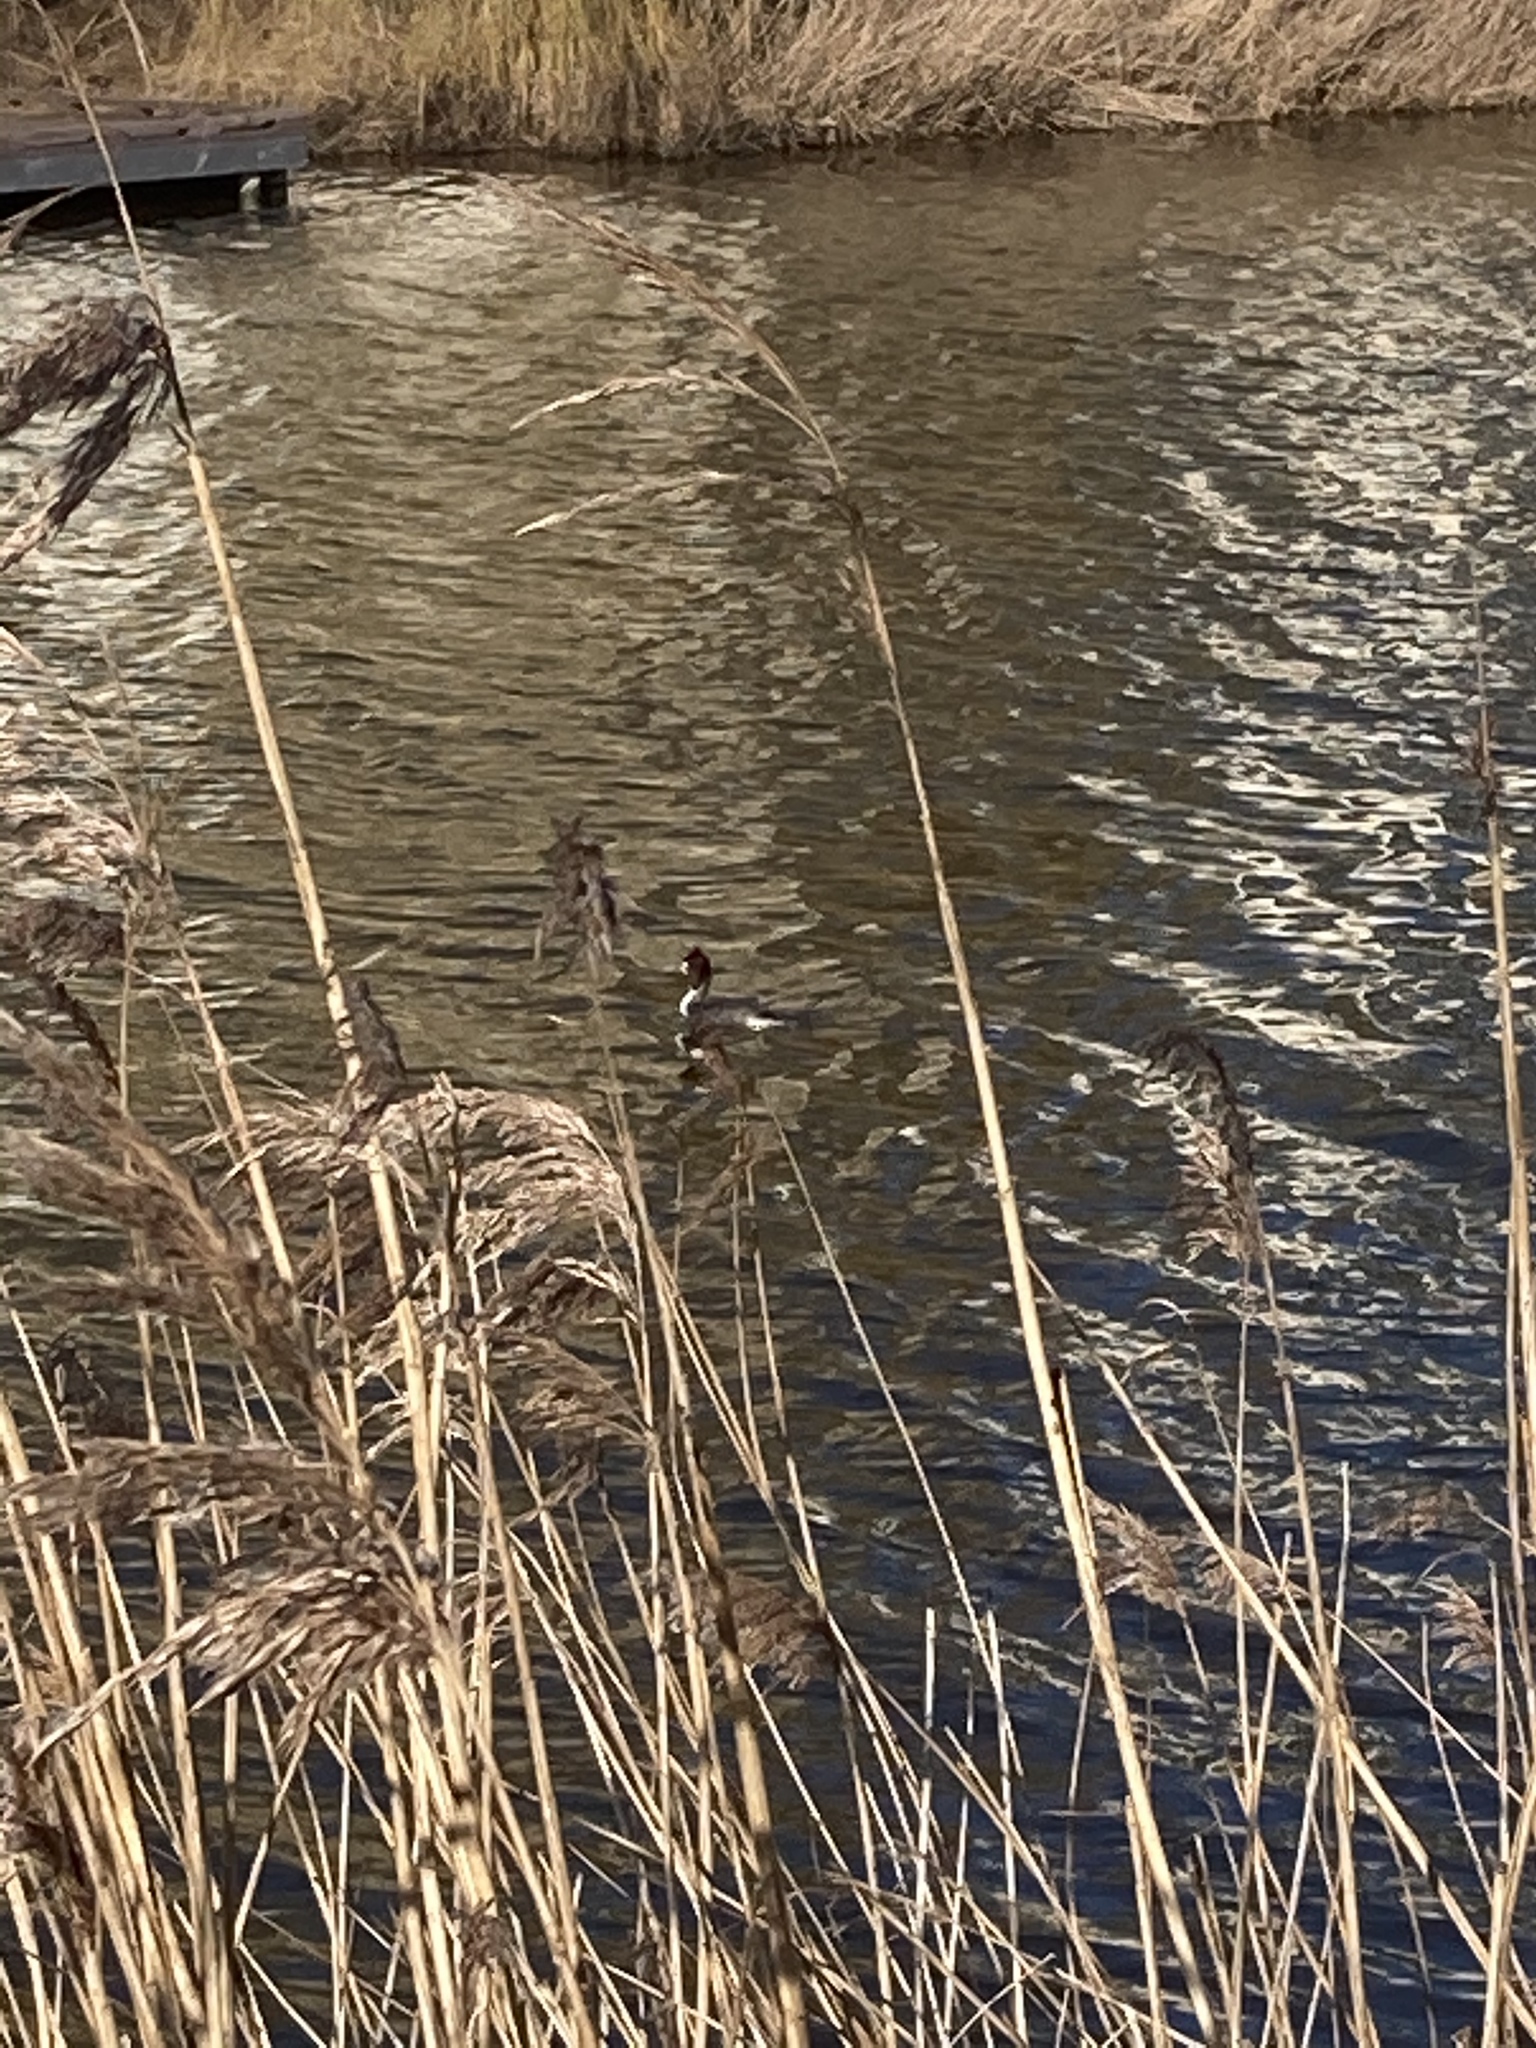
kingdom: Animalia
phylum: Chordata
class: Aves
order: Podicipediformes
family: Podicipedidae
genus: Podiceps
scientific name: Podiceps cristatus
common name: Great crested grebe
